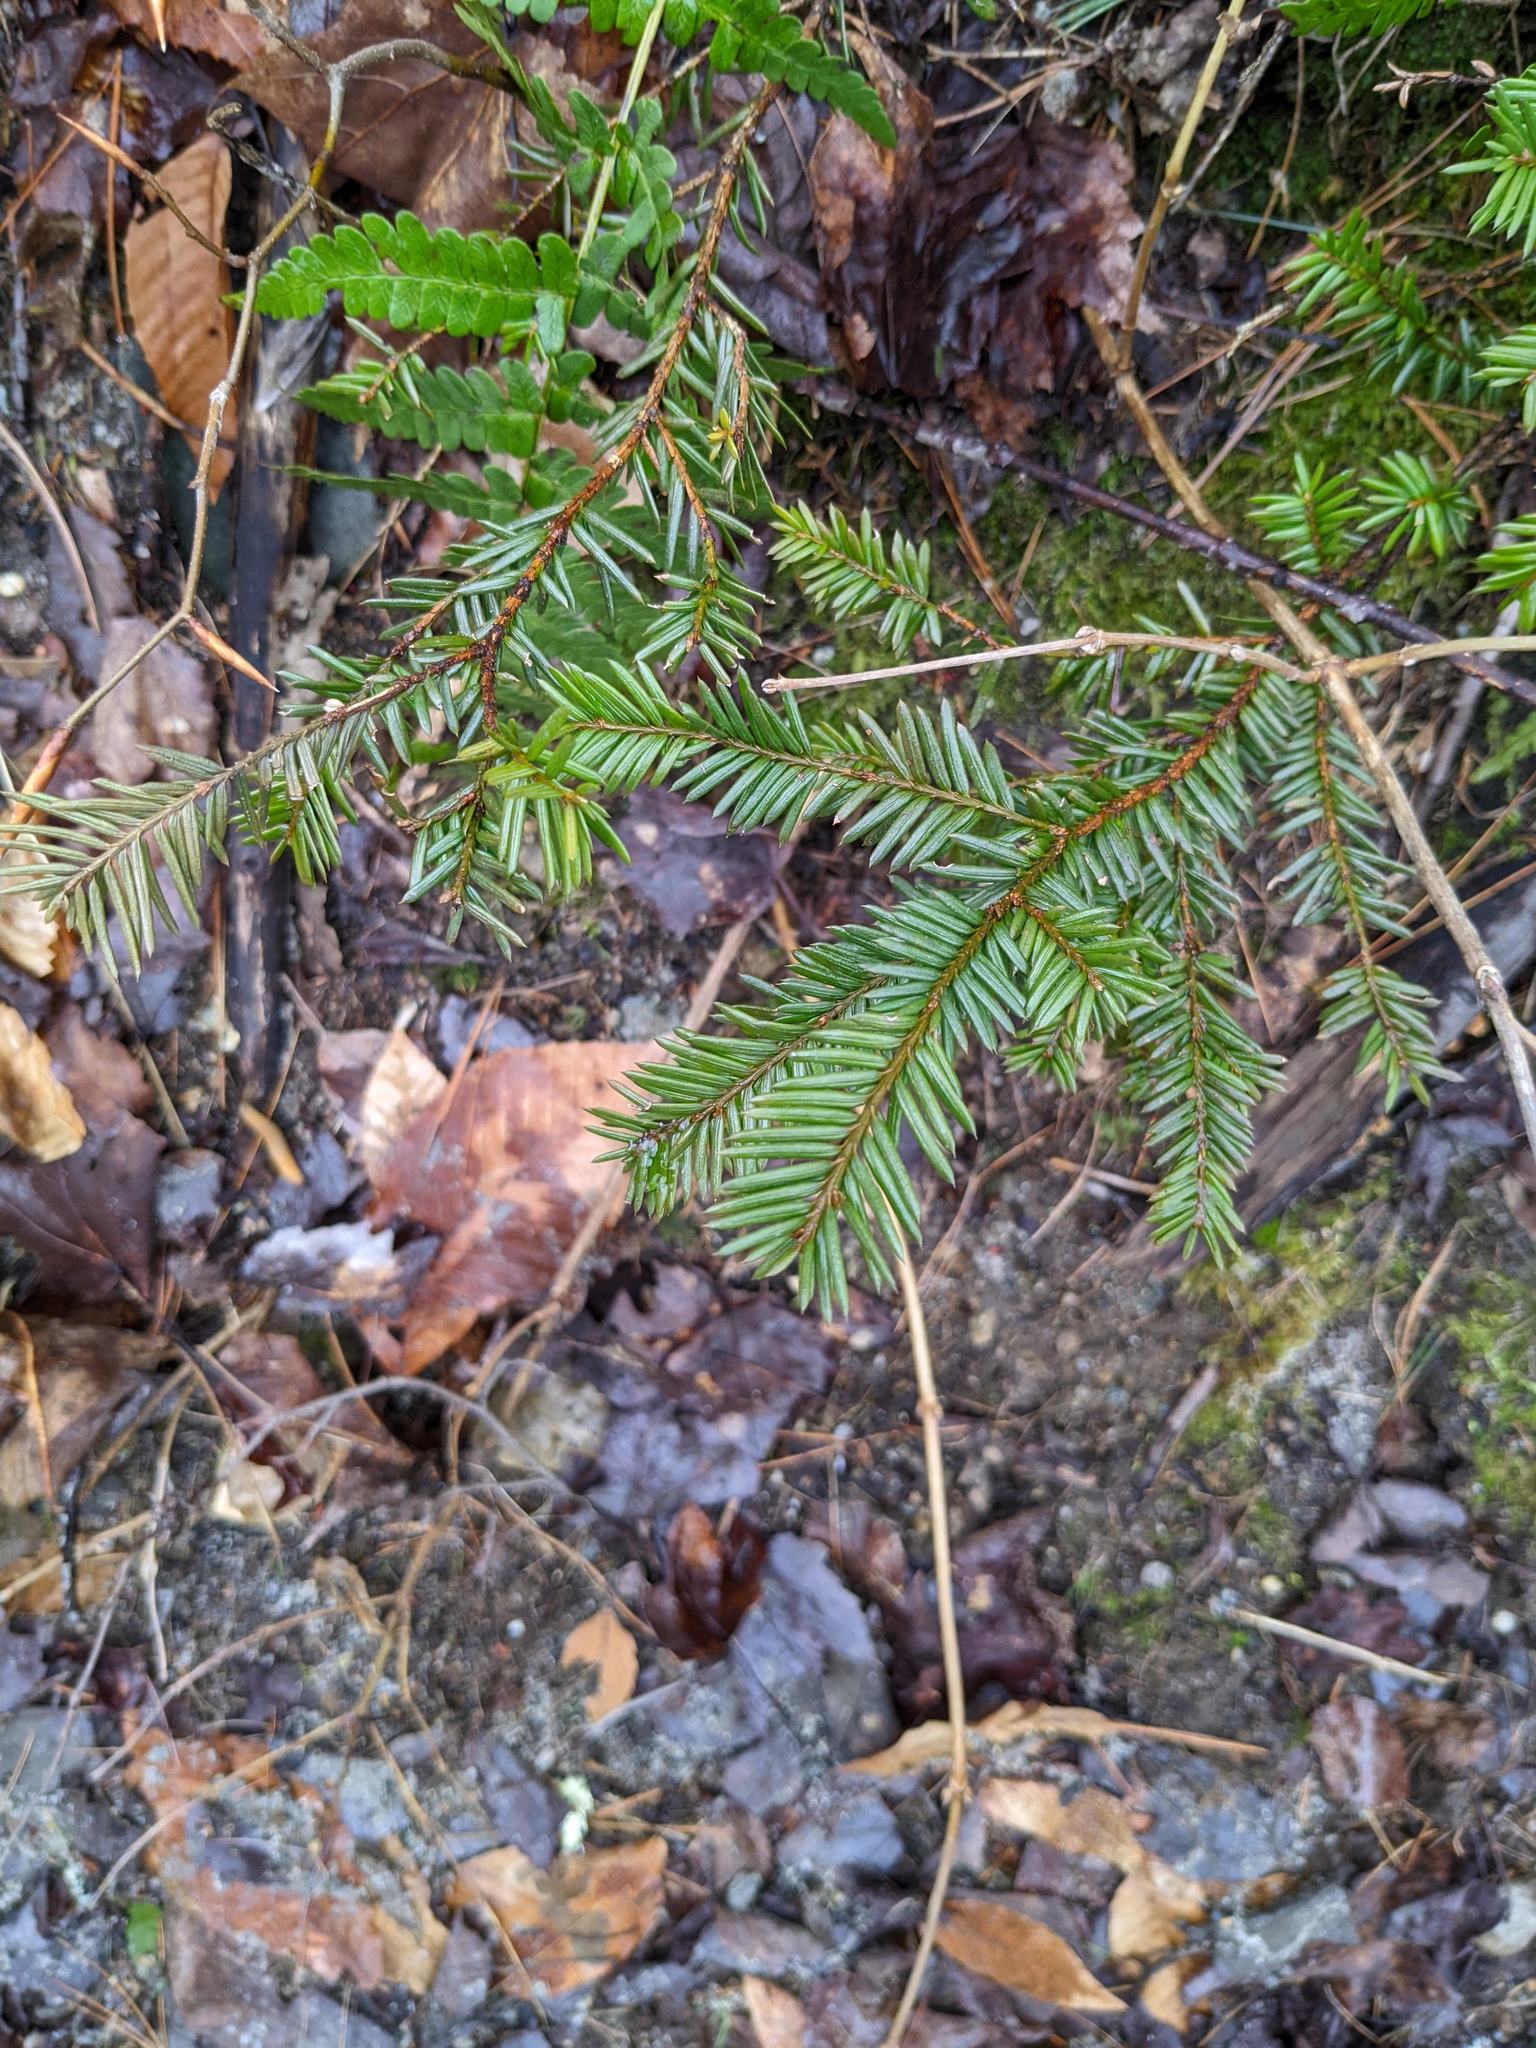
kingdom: Plantae
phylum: Tracheophyta
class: Pinopsida
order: Pinales
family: Taxaceae
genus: Taxus
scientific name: Taxus canadensis
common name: American yew
